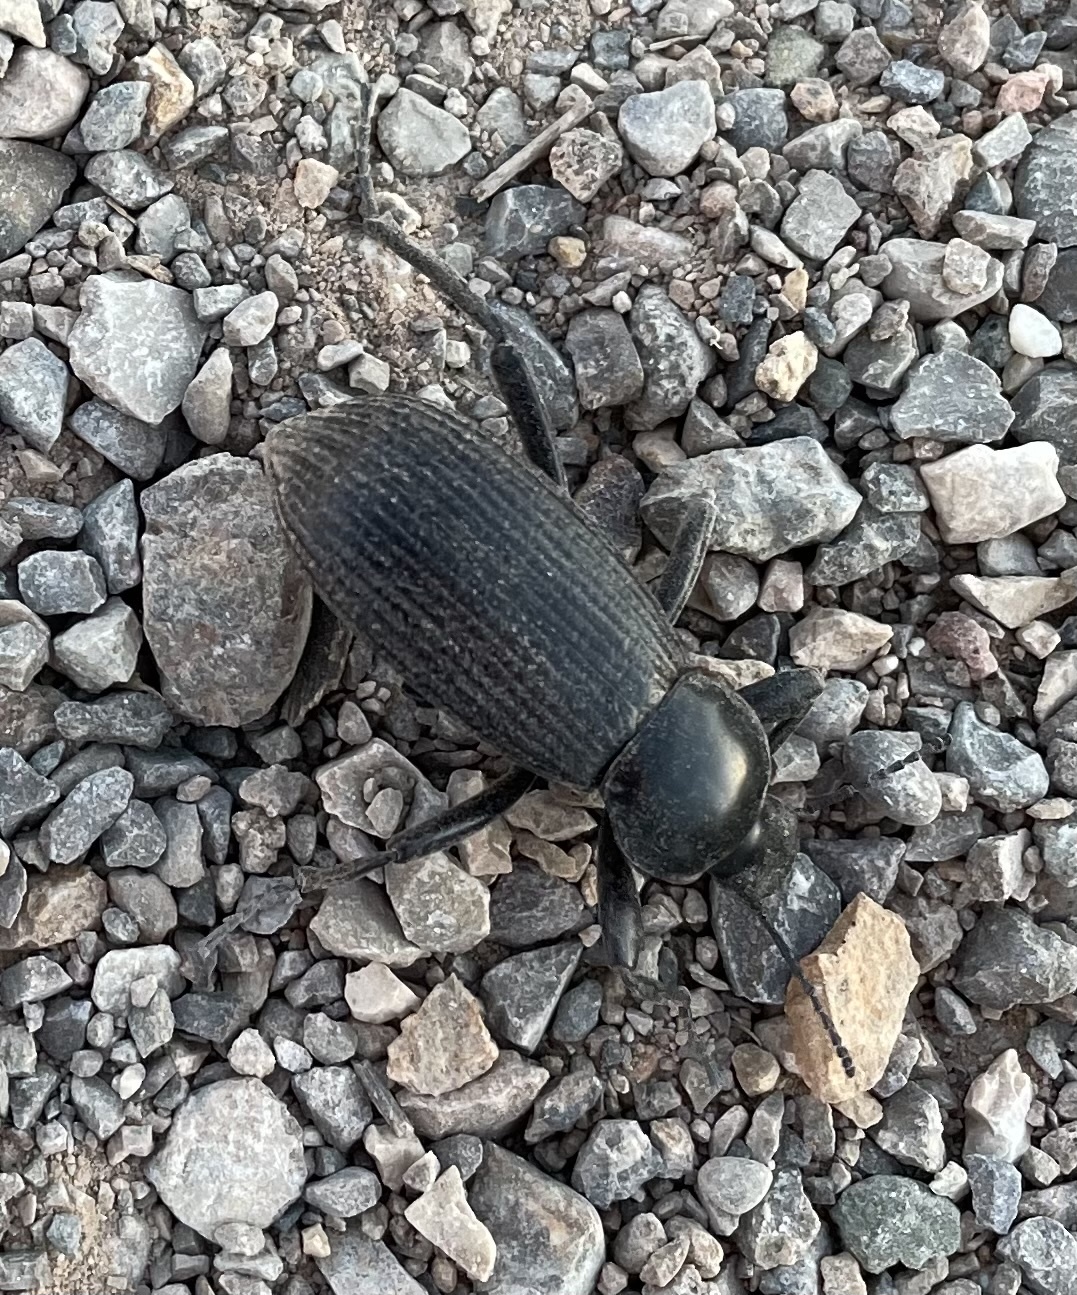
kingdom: Animalia
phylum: Arthropoda
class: Insecta
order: Coleoptera
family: Tenebrionidae
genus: Eleodes
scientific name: Eleodes obscura
